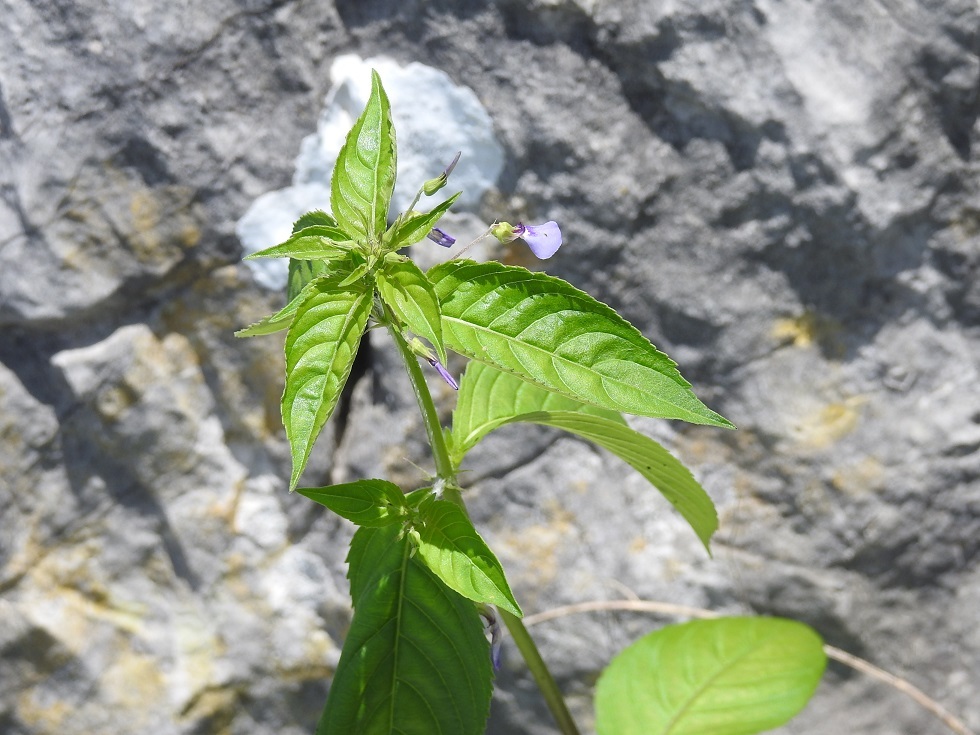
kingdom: Plantae
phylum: Tracheophyta
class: Magnoliopsida
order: Malpighiales
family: Violaceae
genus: Pombalia
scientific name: Pombalia glabra
